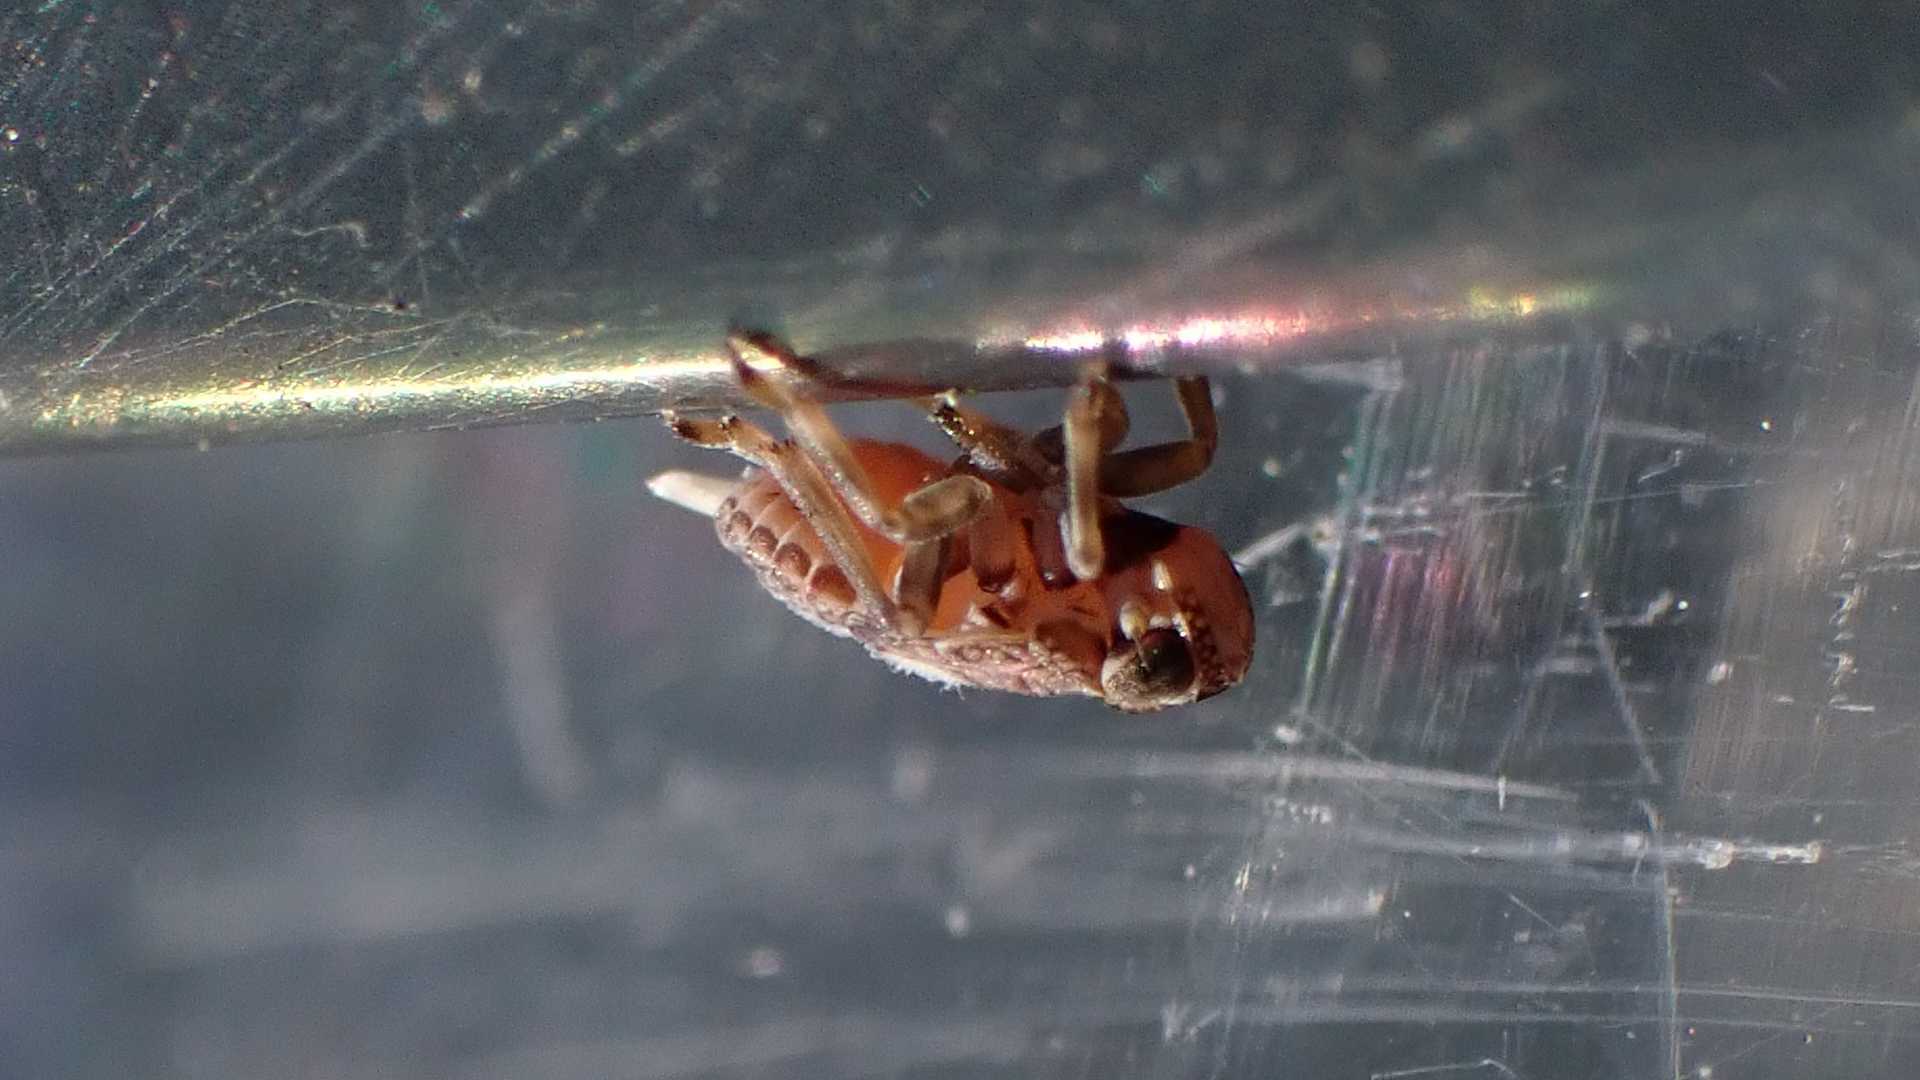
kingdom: Animalia
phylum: Arthropoda
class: Insecta
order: Hemiptera
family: Issidae
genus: Issus
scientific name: Issus coleoptratus
